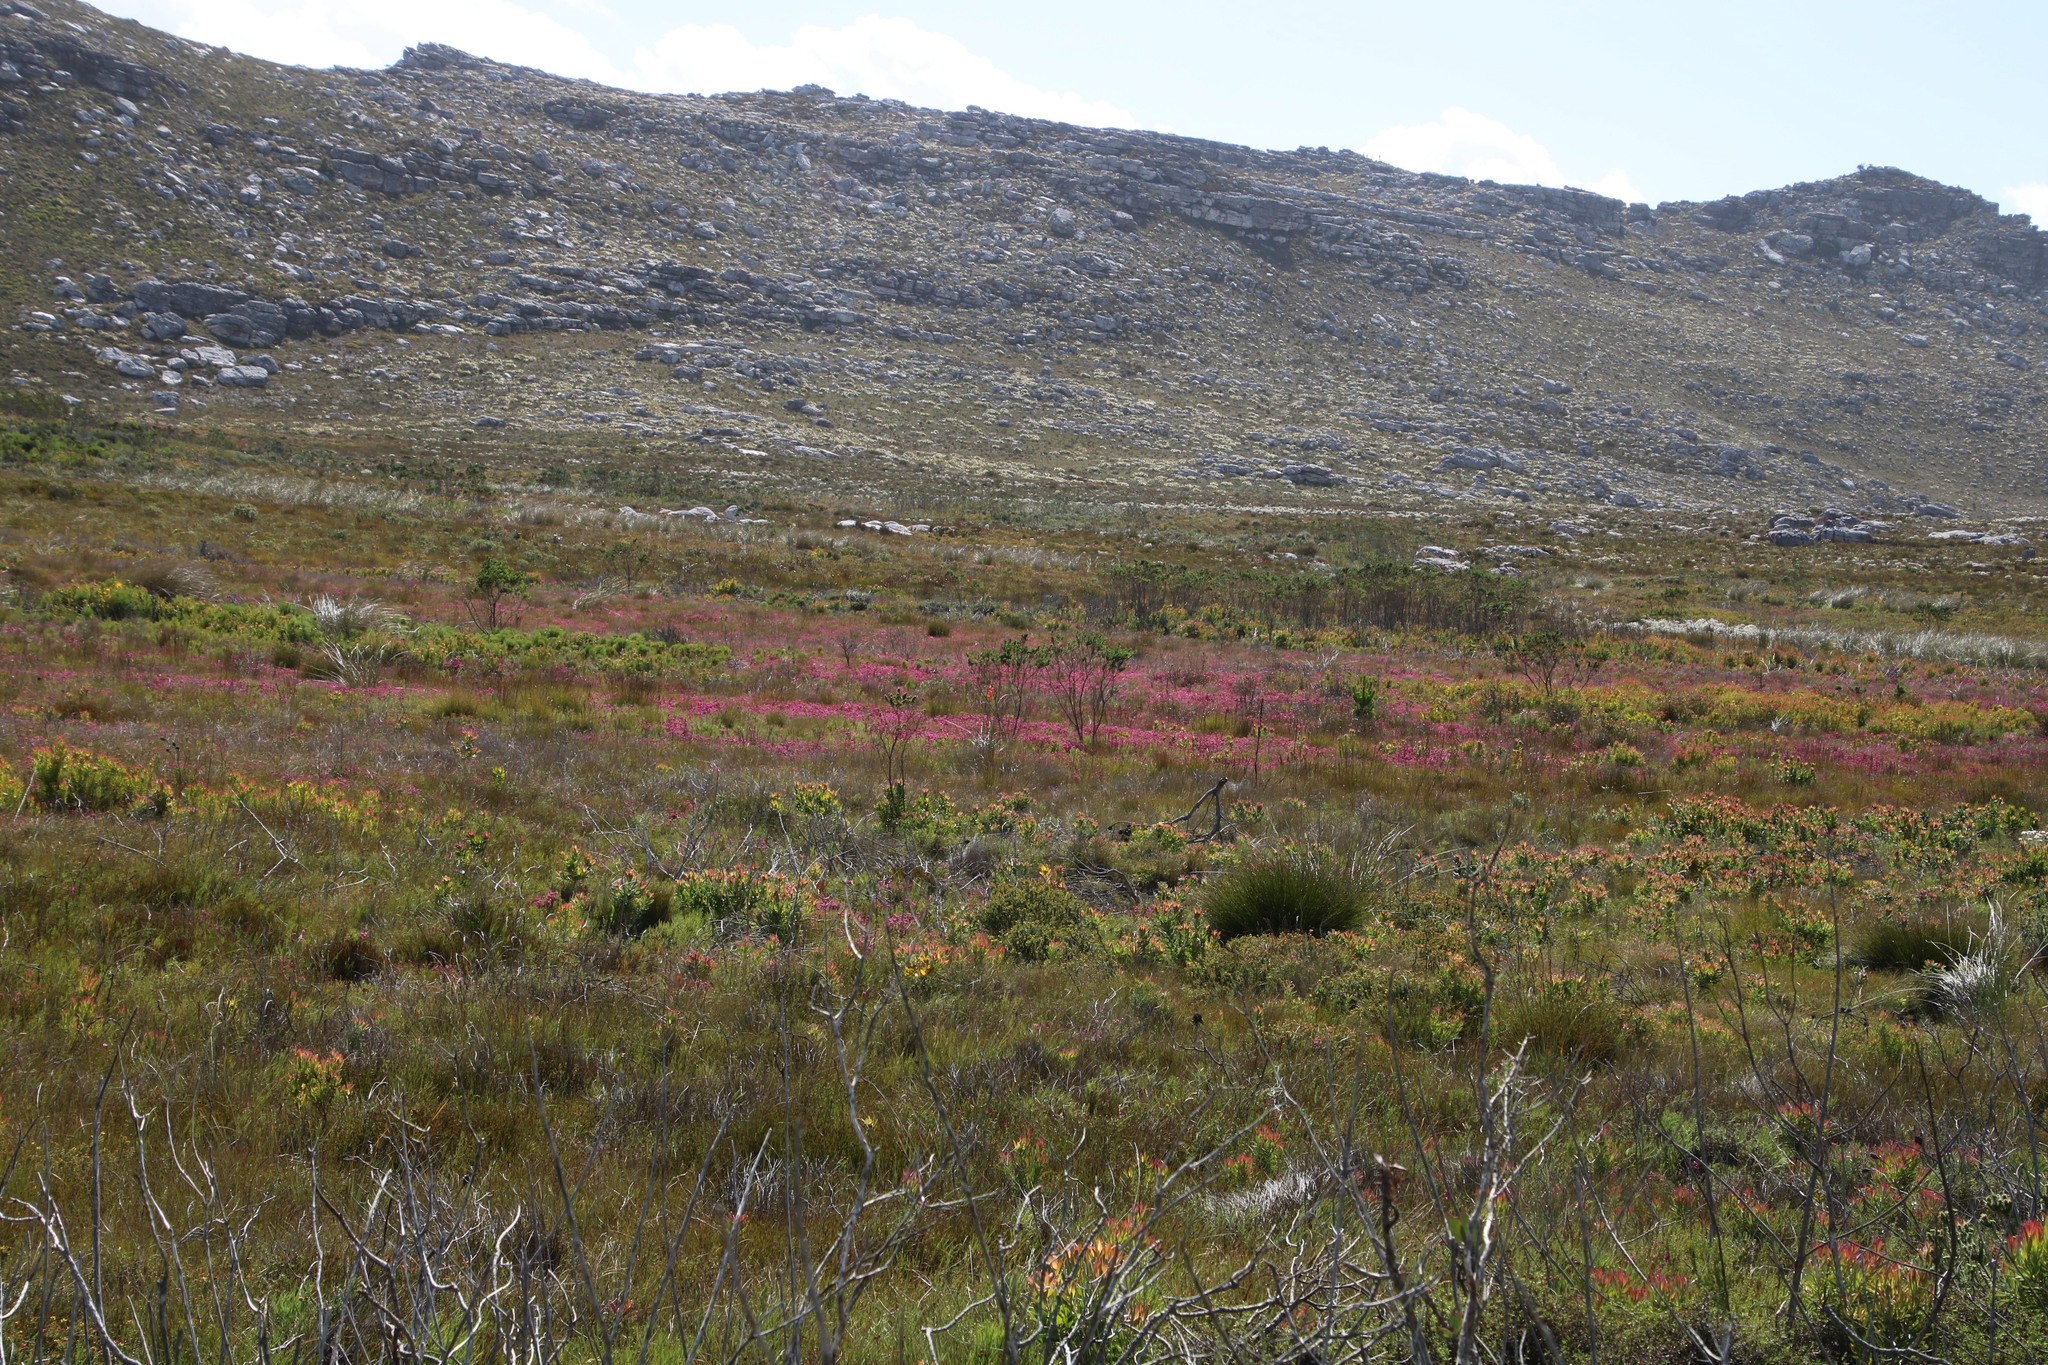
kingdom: Plantae
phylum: Tracheophyta
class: Magnoliopsida
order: Ericales
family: Ericaceae
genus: Erica
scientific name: Erica laeta
